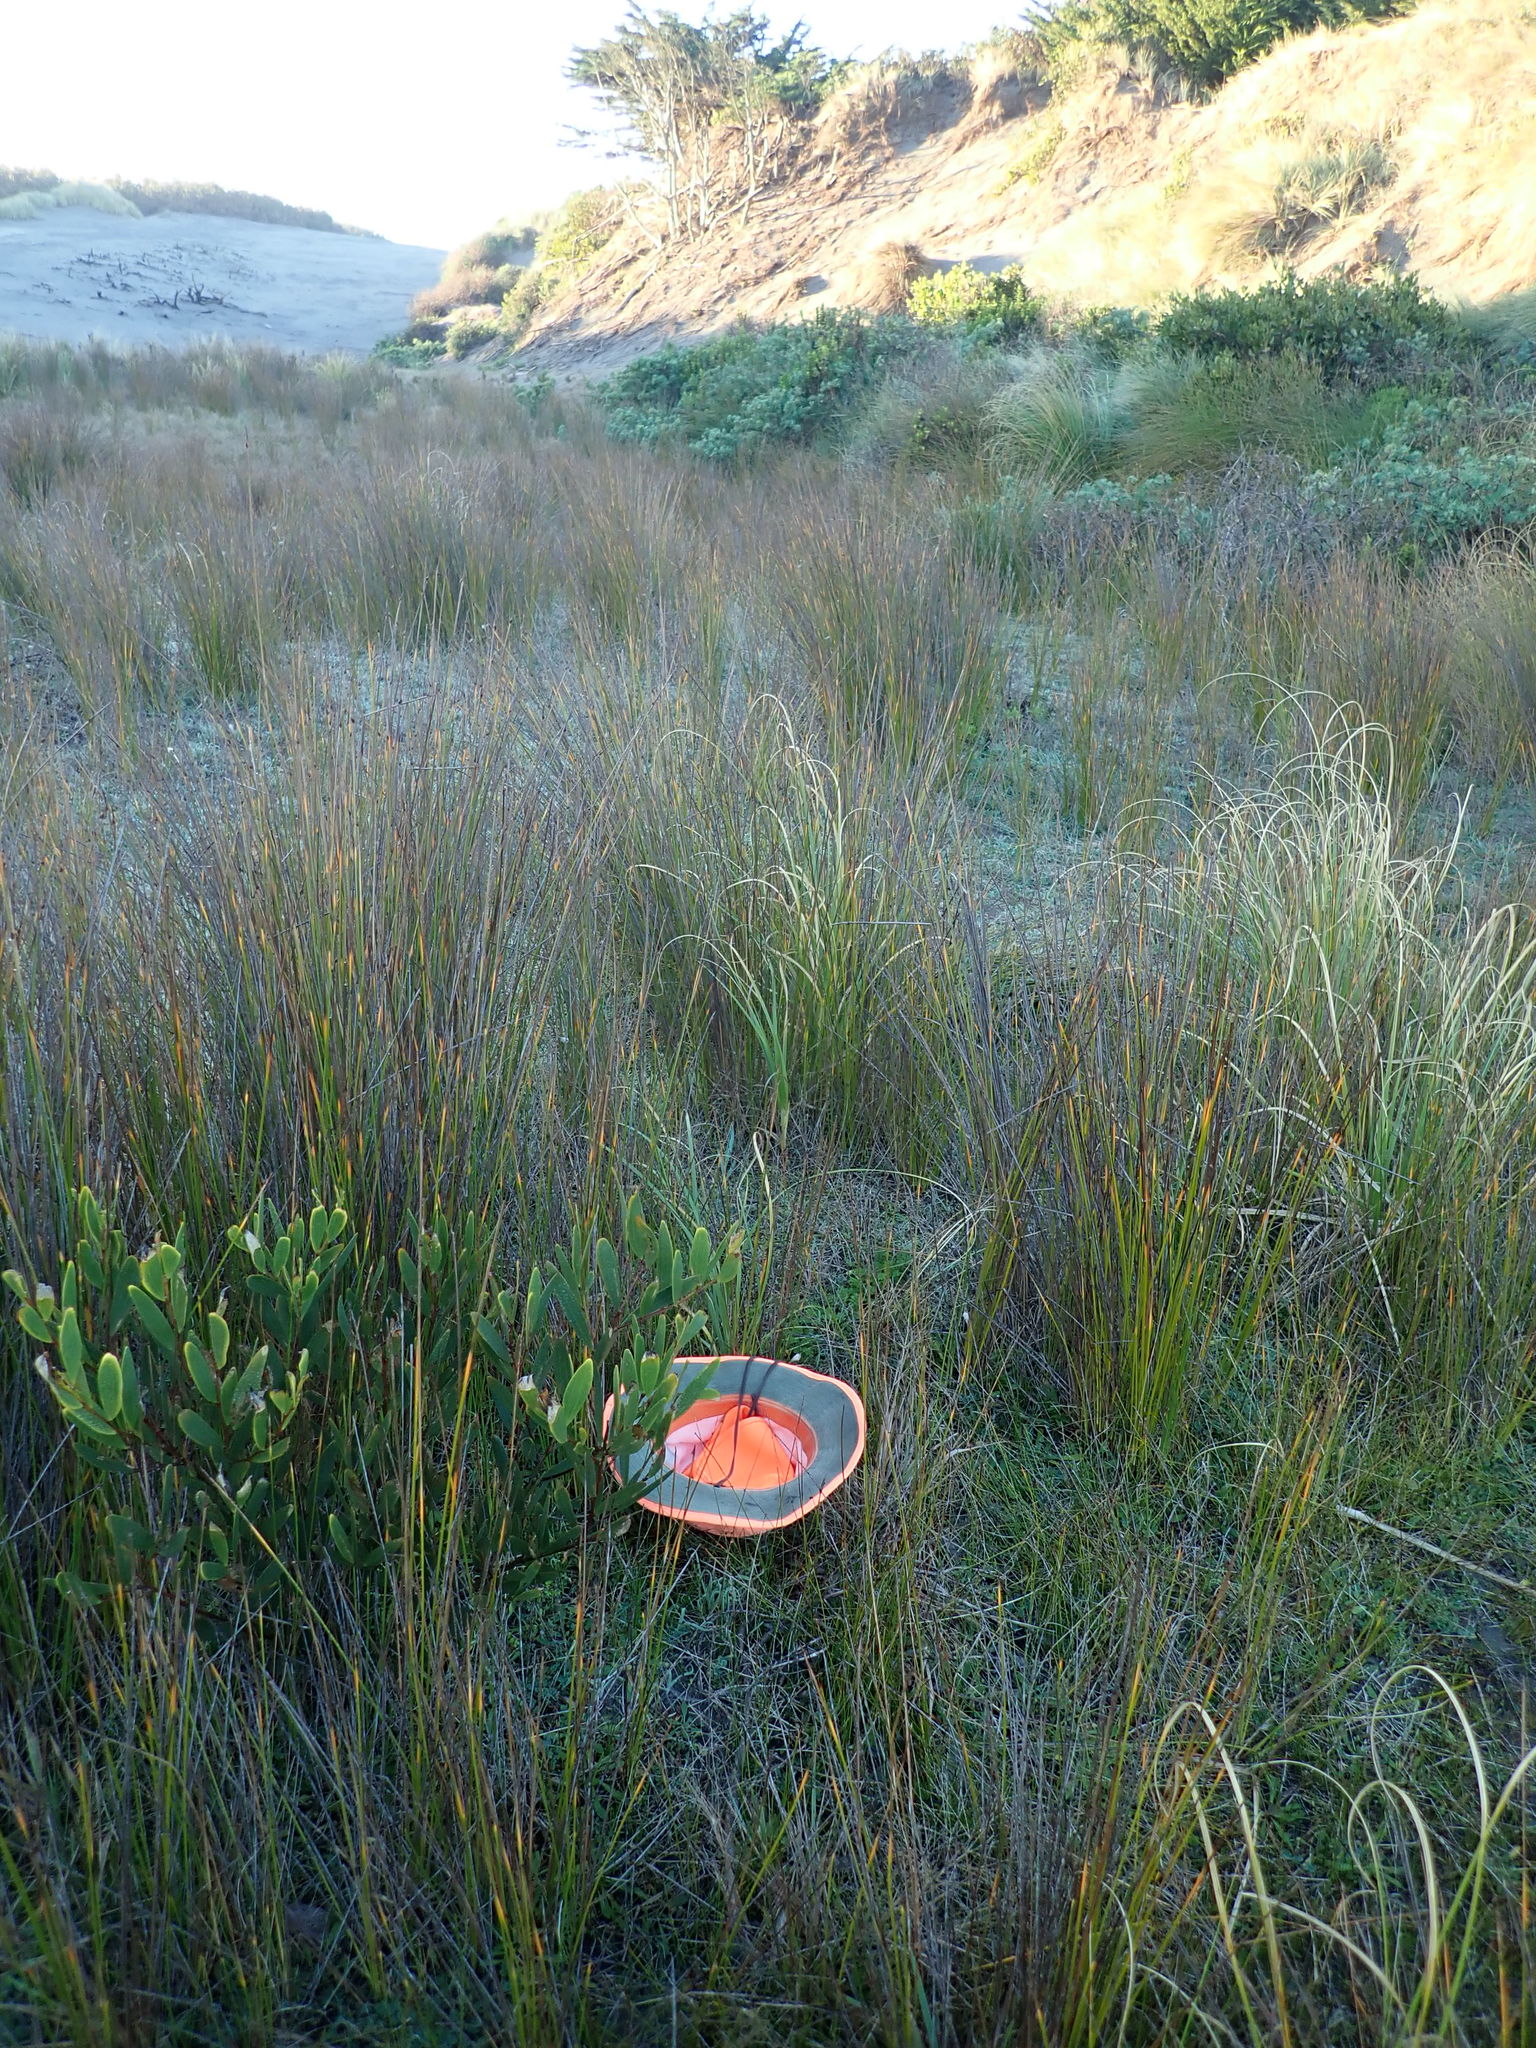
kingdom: Plantae
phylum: Tracheophyta
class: Magnoliopsida
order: Rosales
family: Rosaceae
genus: Acaena
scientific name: Acaena novae-zelandiae
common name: Pirri-pirri-bur
